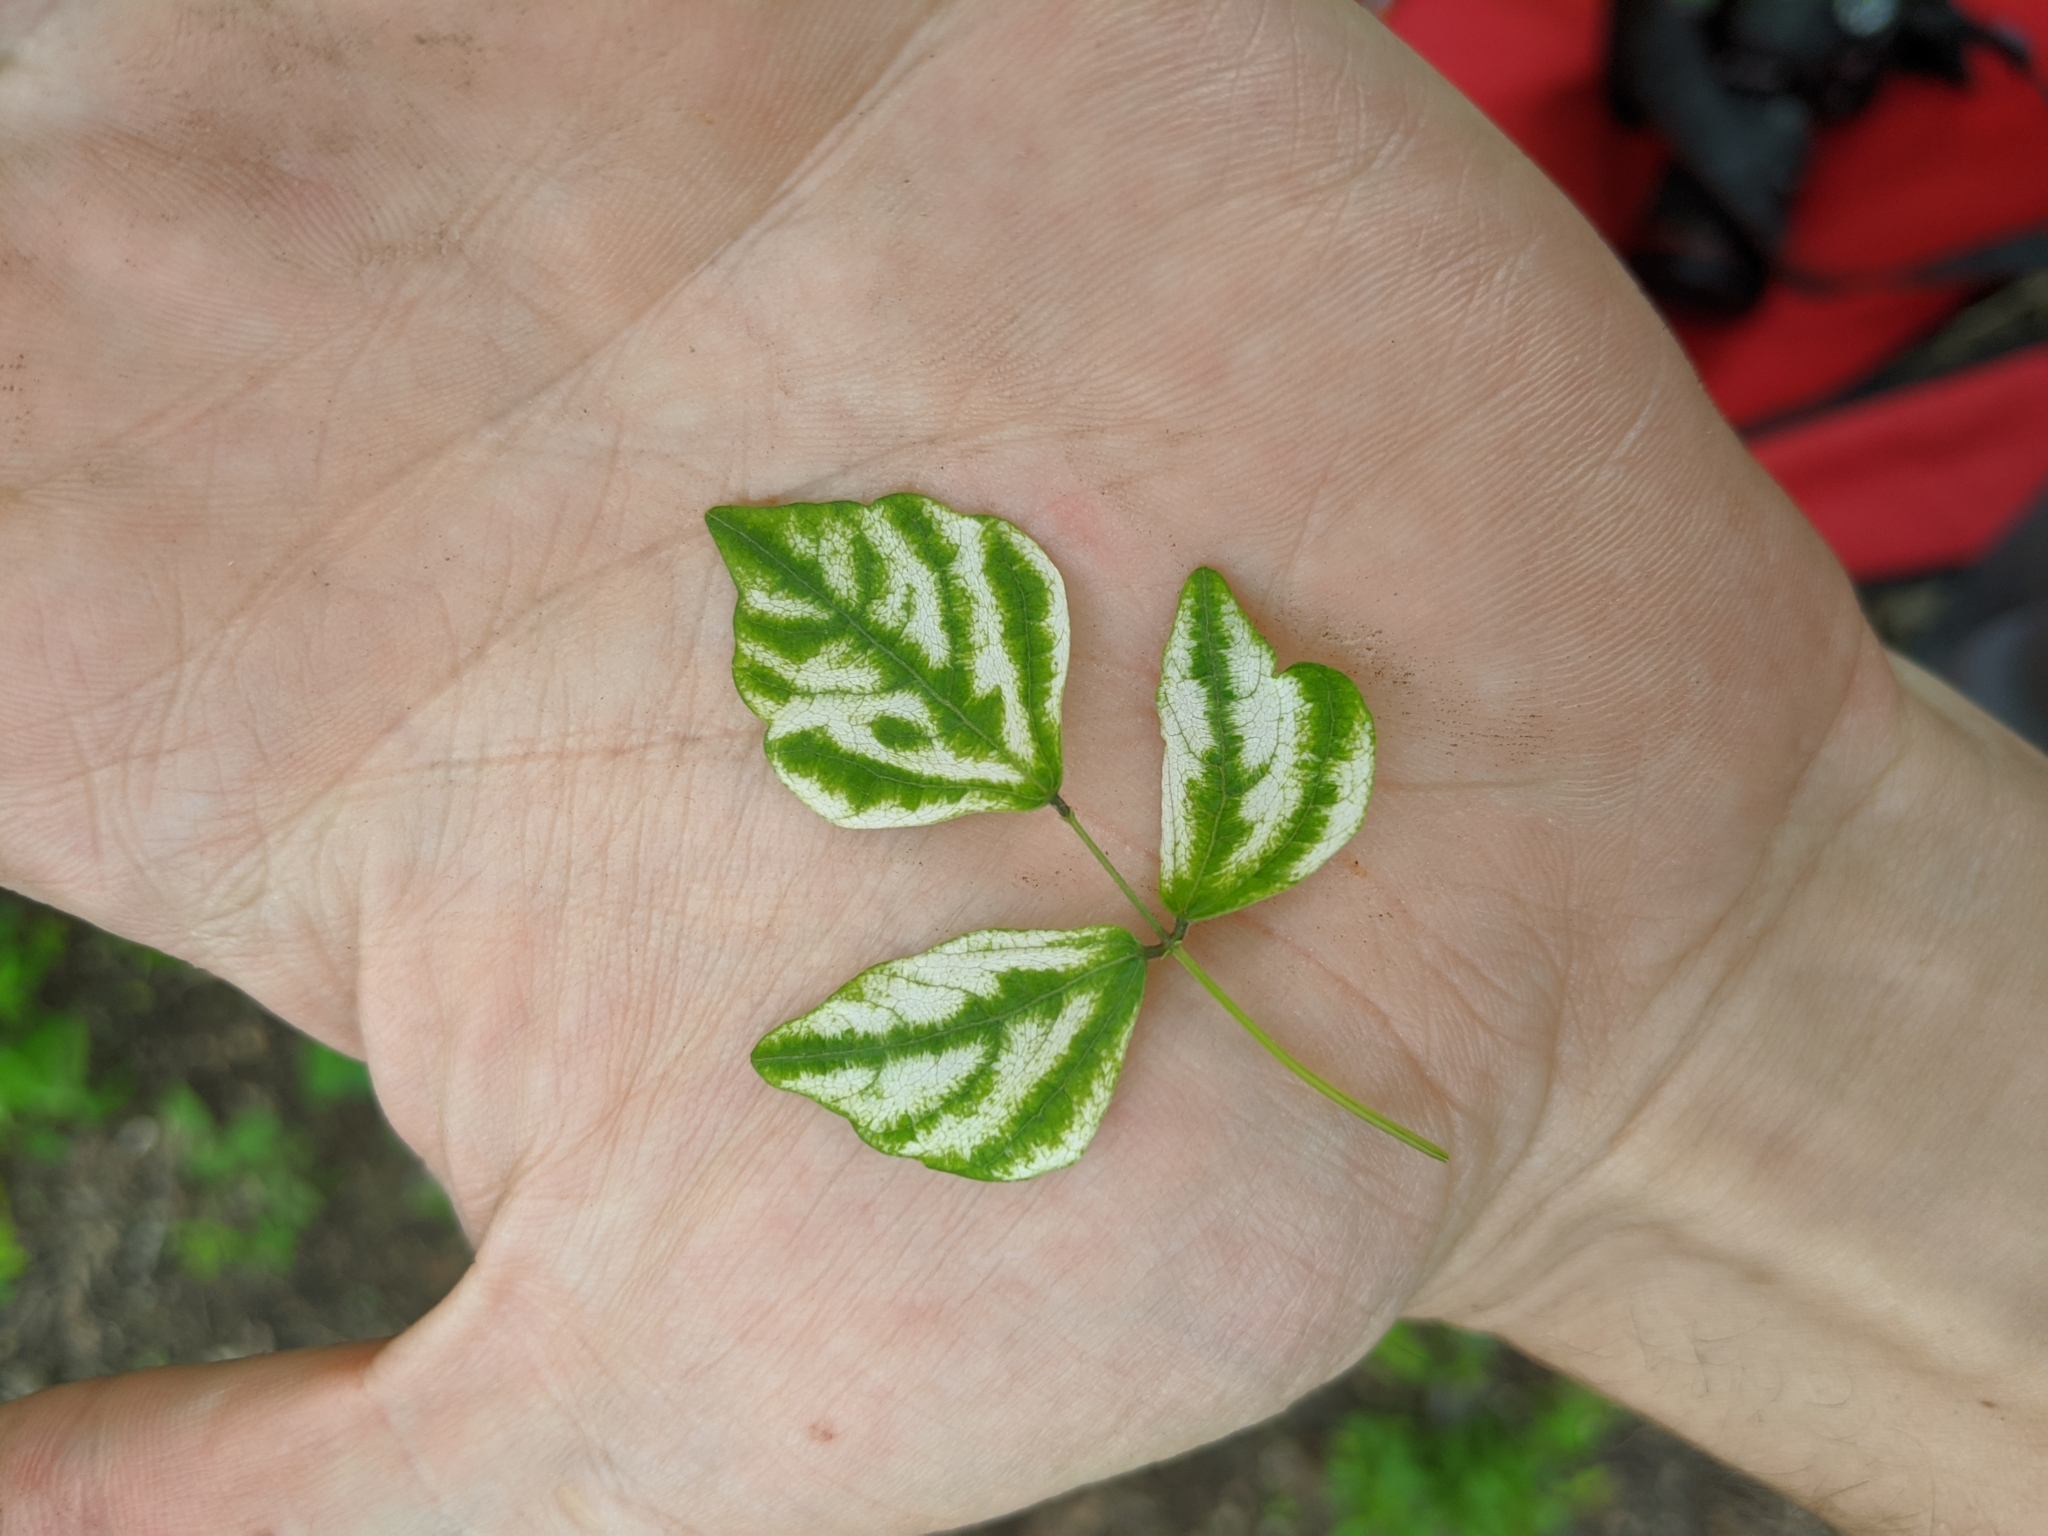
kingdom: Plantae
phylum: Tracheophyta
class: Magnoliopsida
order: Fabales
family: Fabaceae
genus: Amphicarpaea
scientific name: Amphicarpaea bracteata
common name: American hog peanut
